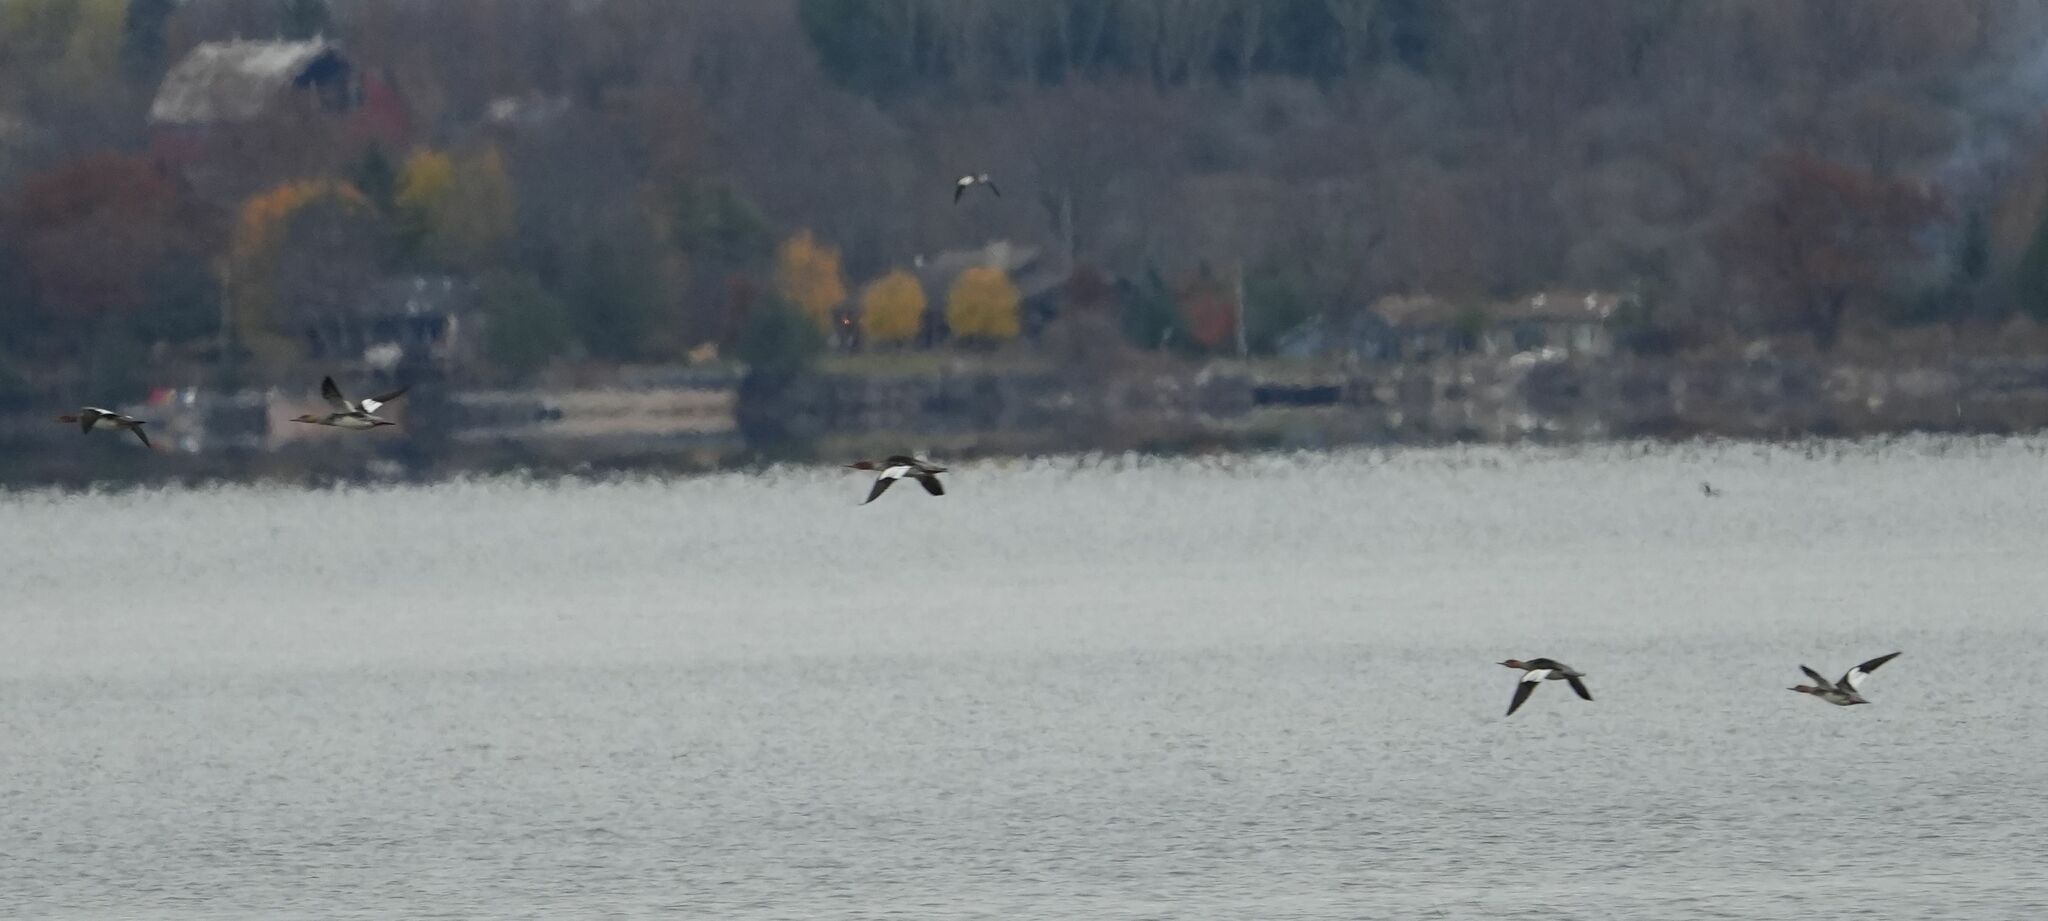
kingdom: Animalia
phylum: Chordata
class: Aves
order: Anseriformes
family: Anatidae
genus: Mergus
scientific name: Mergus serrator
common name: Red-breasted merganser
